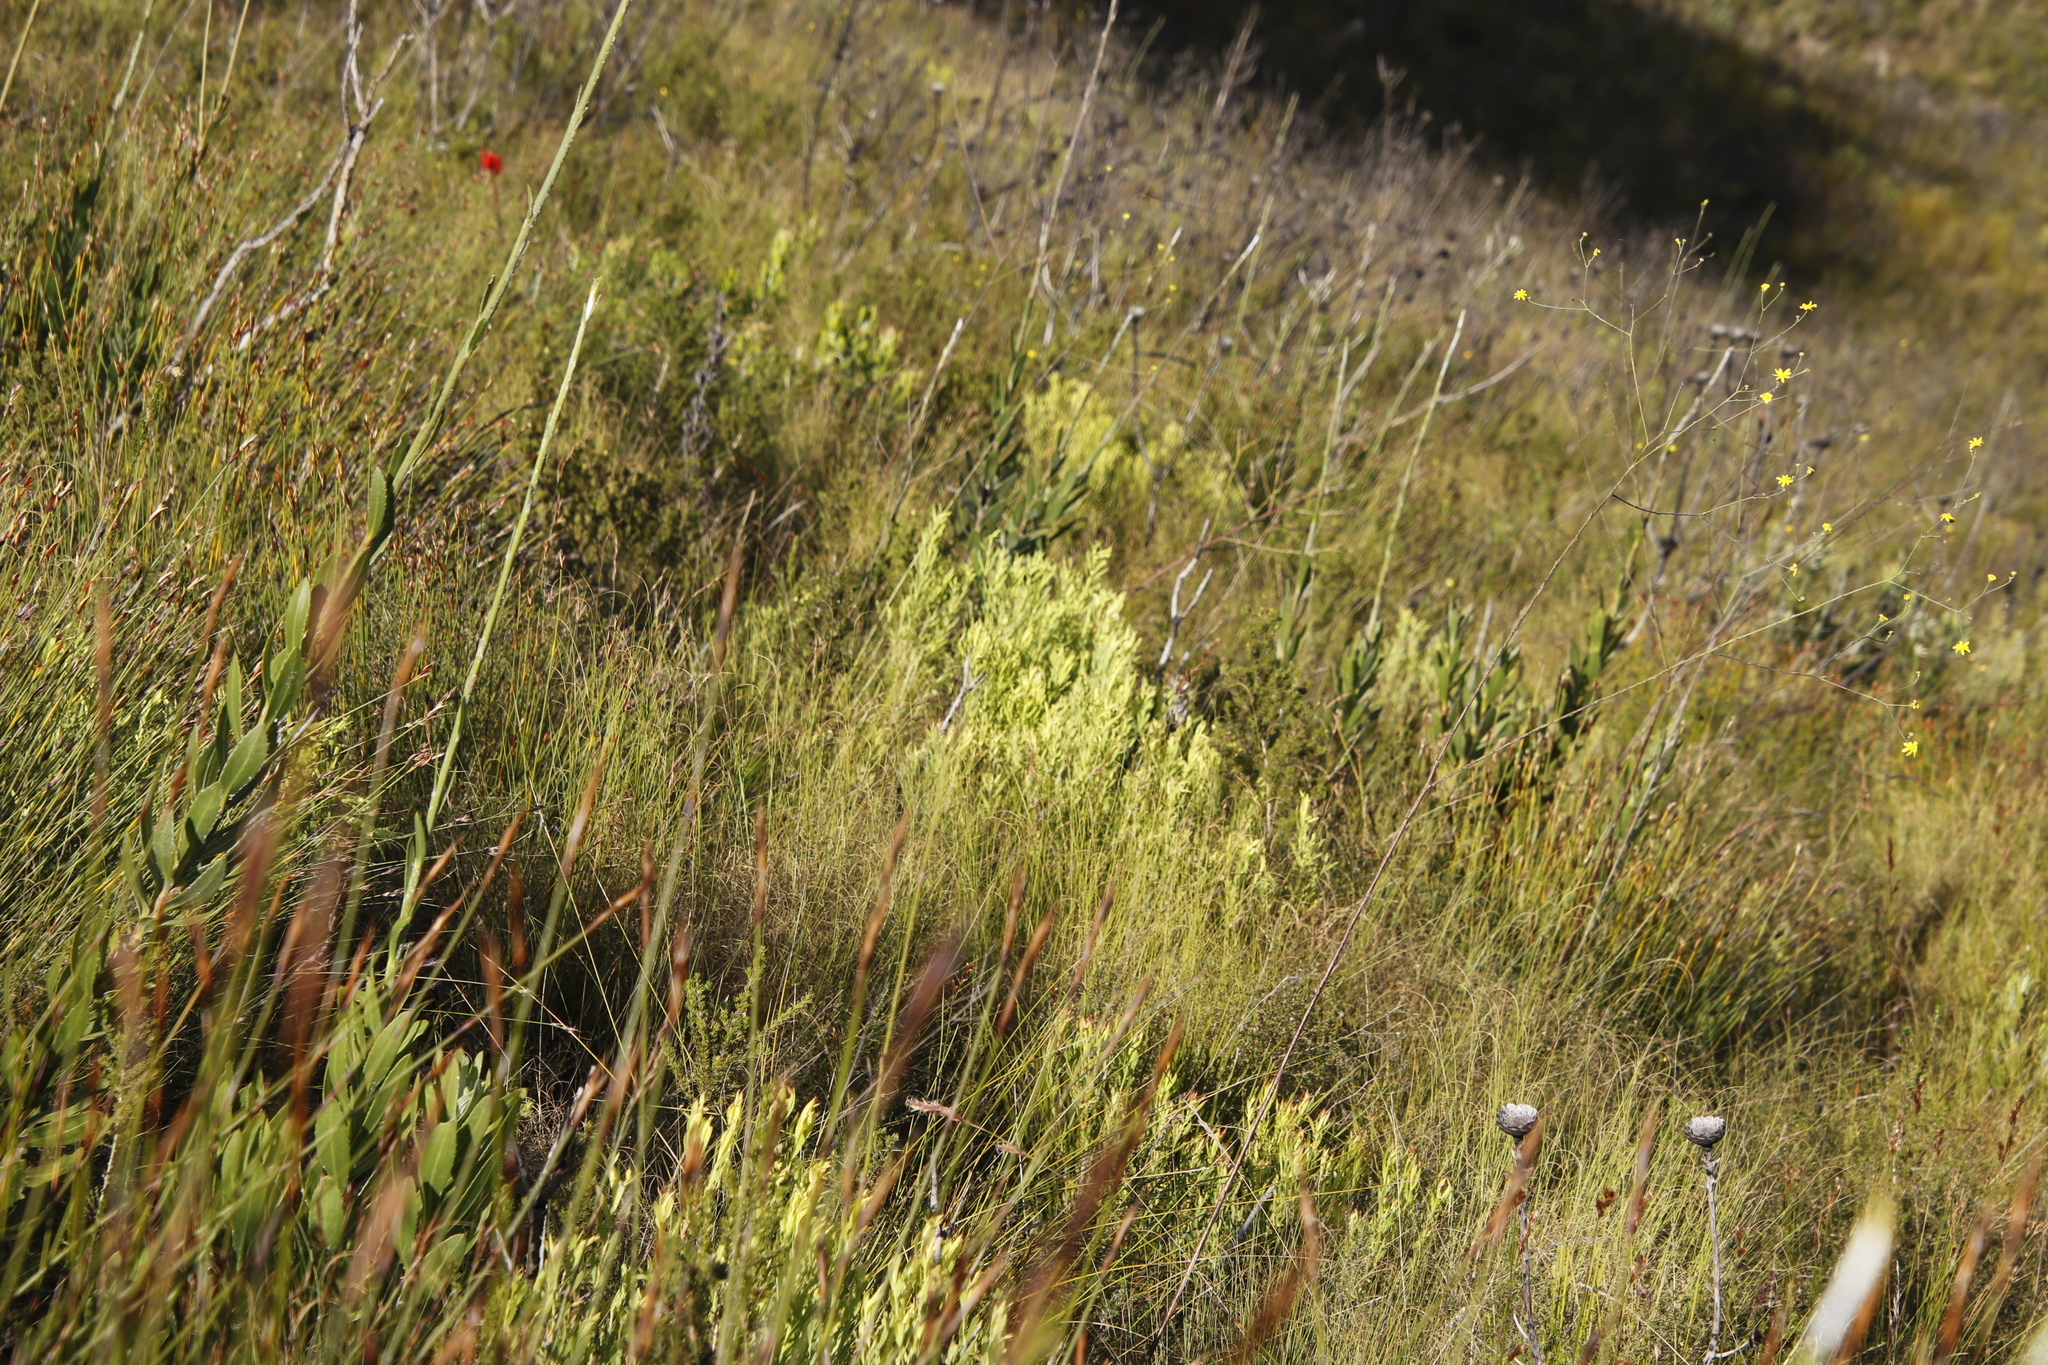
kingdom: Plantae
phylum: Tracheophyta
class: Magnoliopsida
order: Proteales
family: Proteaceae
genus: Leucadendron
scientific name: Leucadendron salignum
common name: Common sunshine conebush
